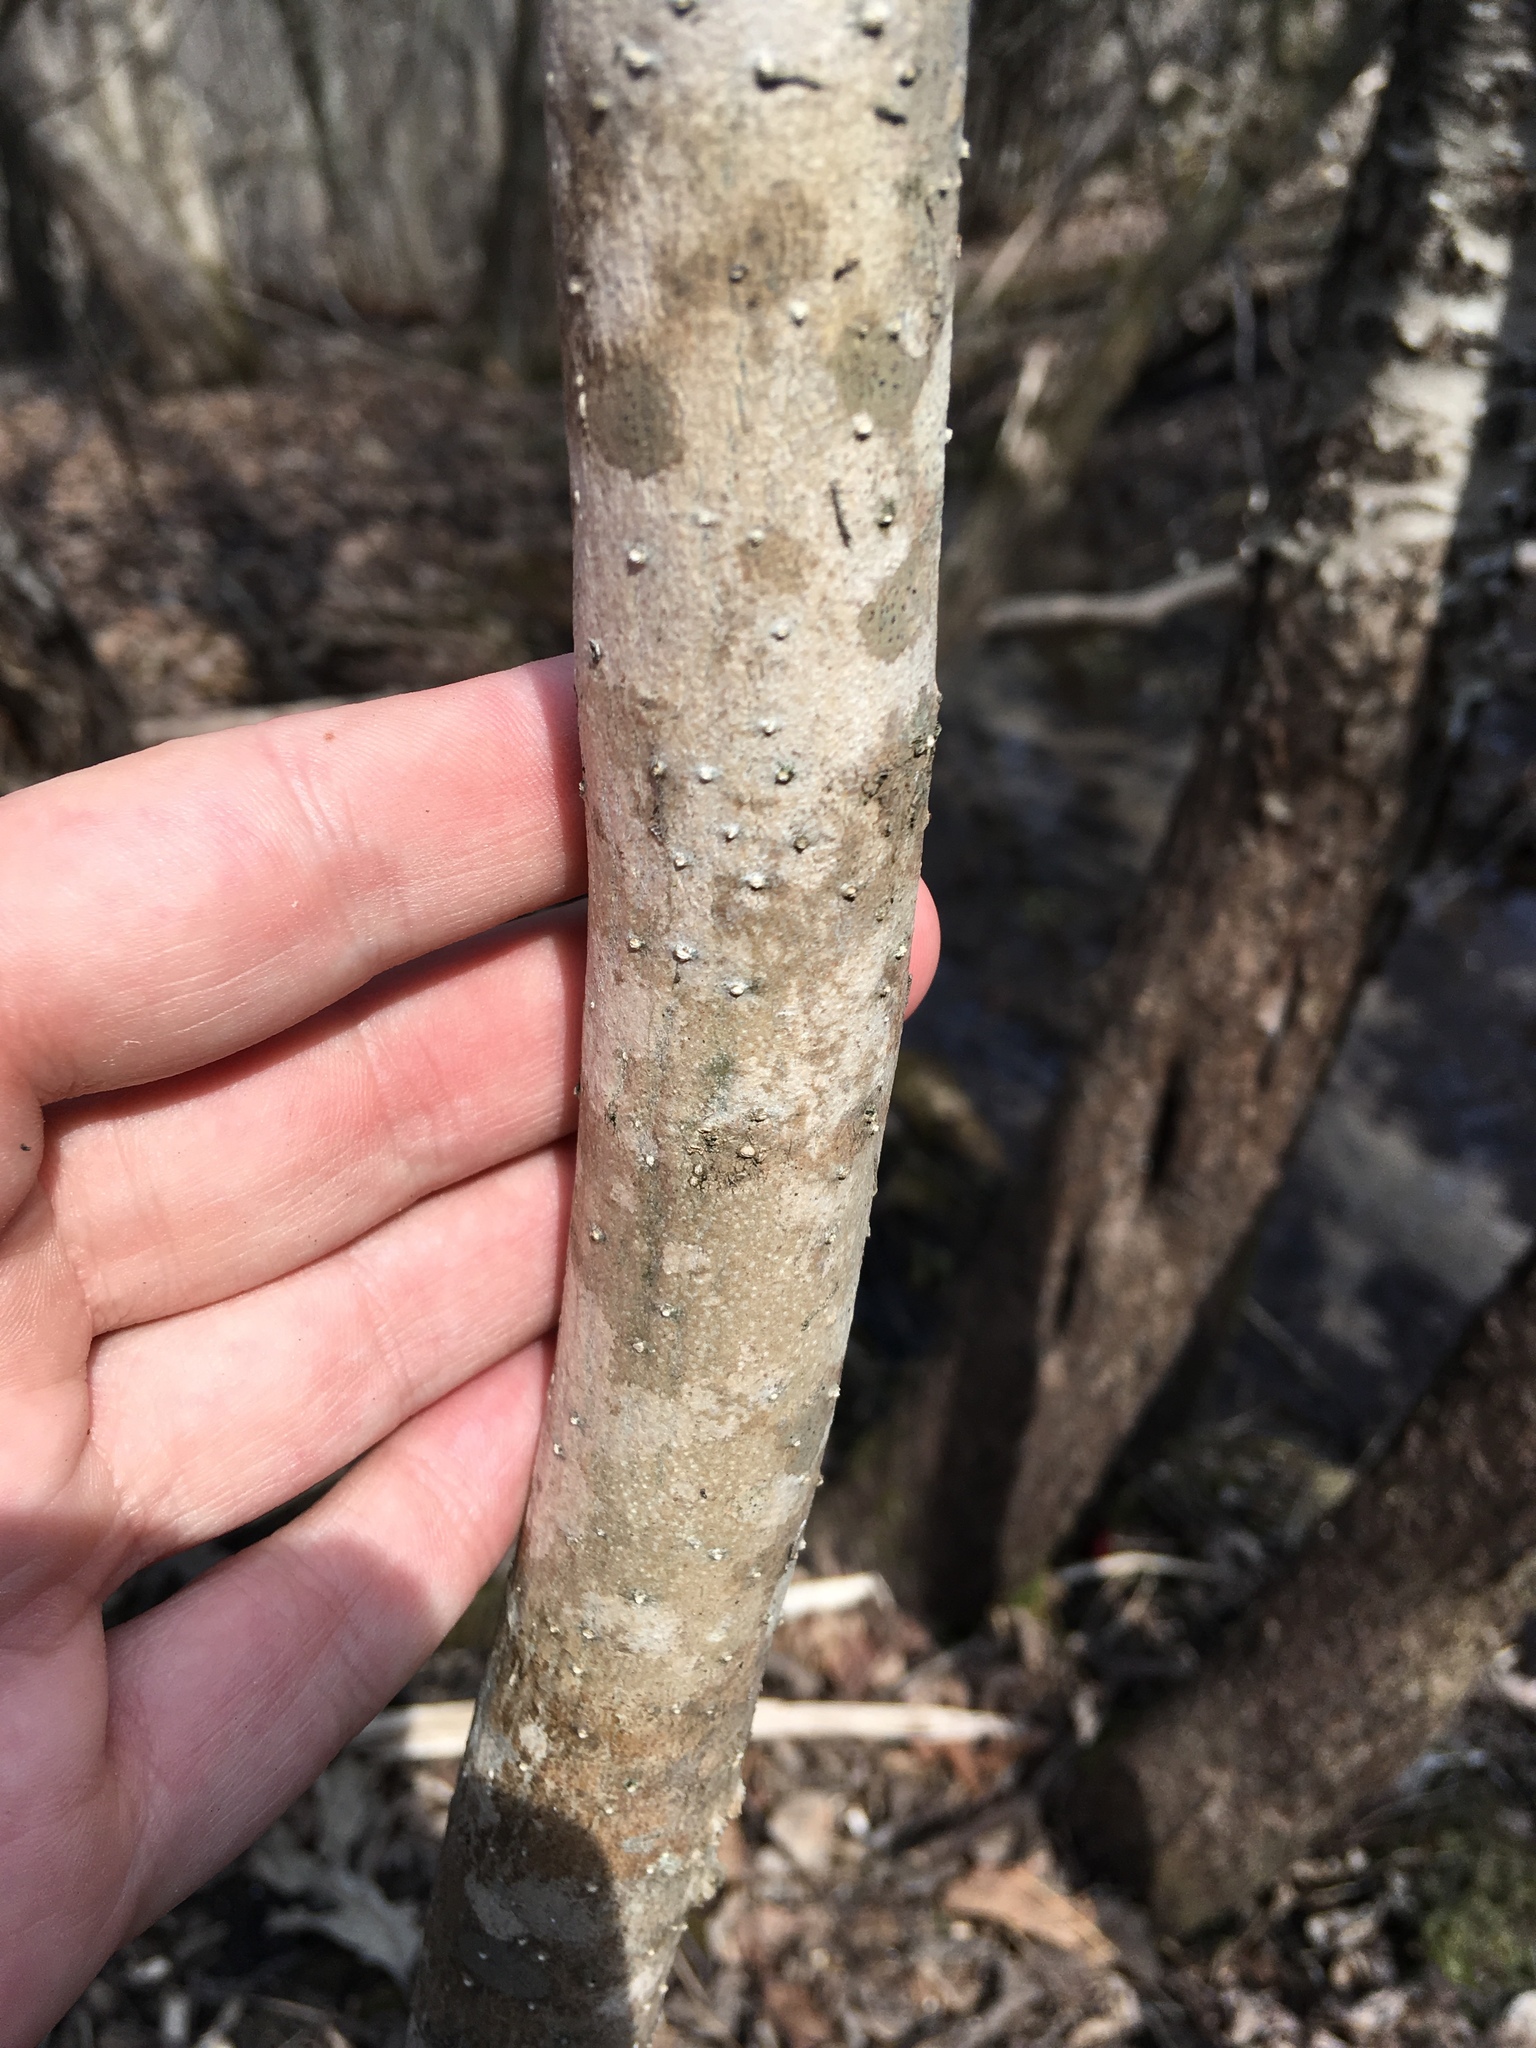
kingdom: Plantae
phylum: Tracheophyta
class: Magnoliopsida
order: Lamiales
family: Oleaceae
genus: Fraxinus
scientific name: Fraxinus nigra
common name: Black ash
